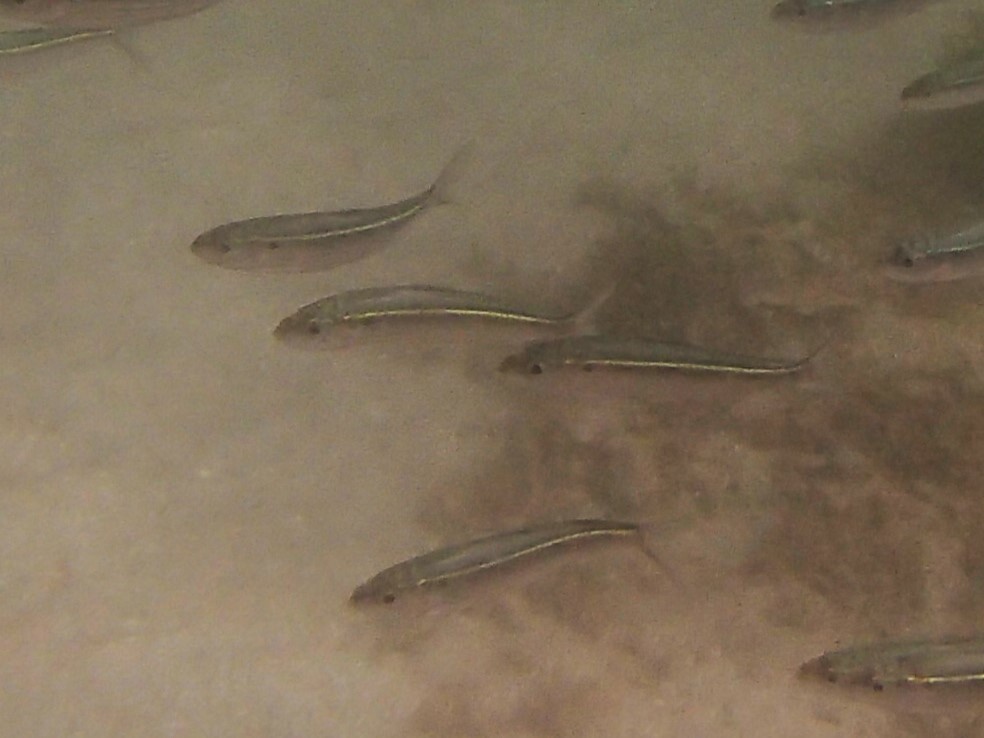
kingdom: Animalia
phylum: Chordata
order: Clupeiformes
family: Clupeidae
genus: Harengula
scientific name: Harengula thrissina
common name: Flatiron herring
